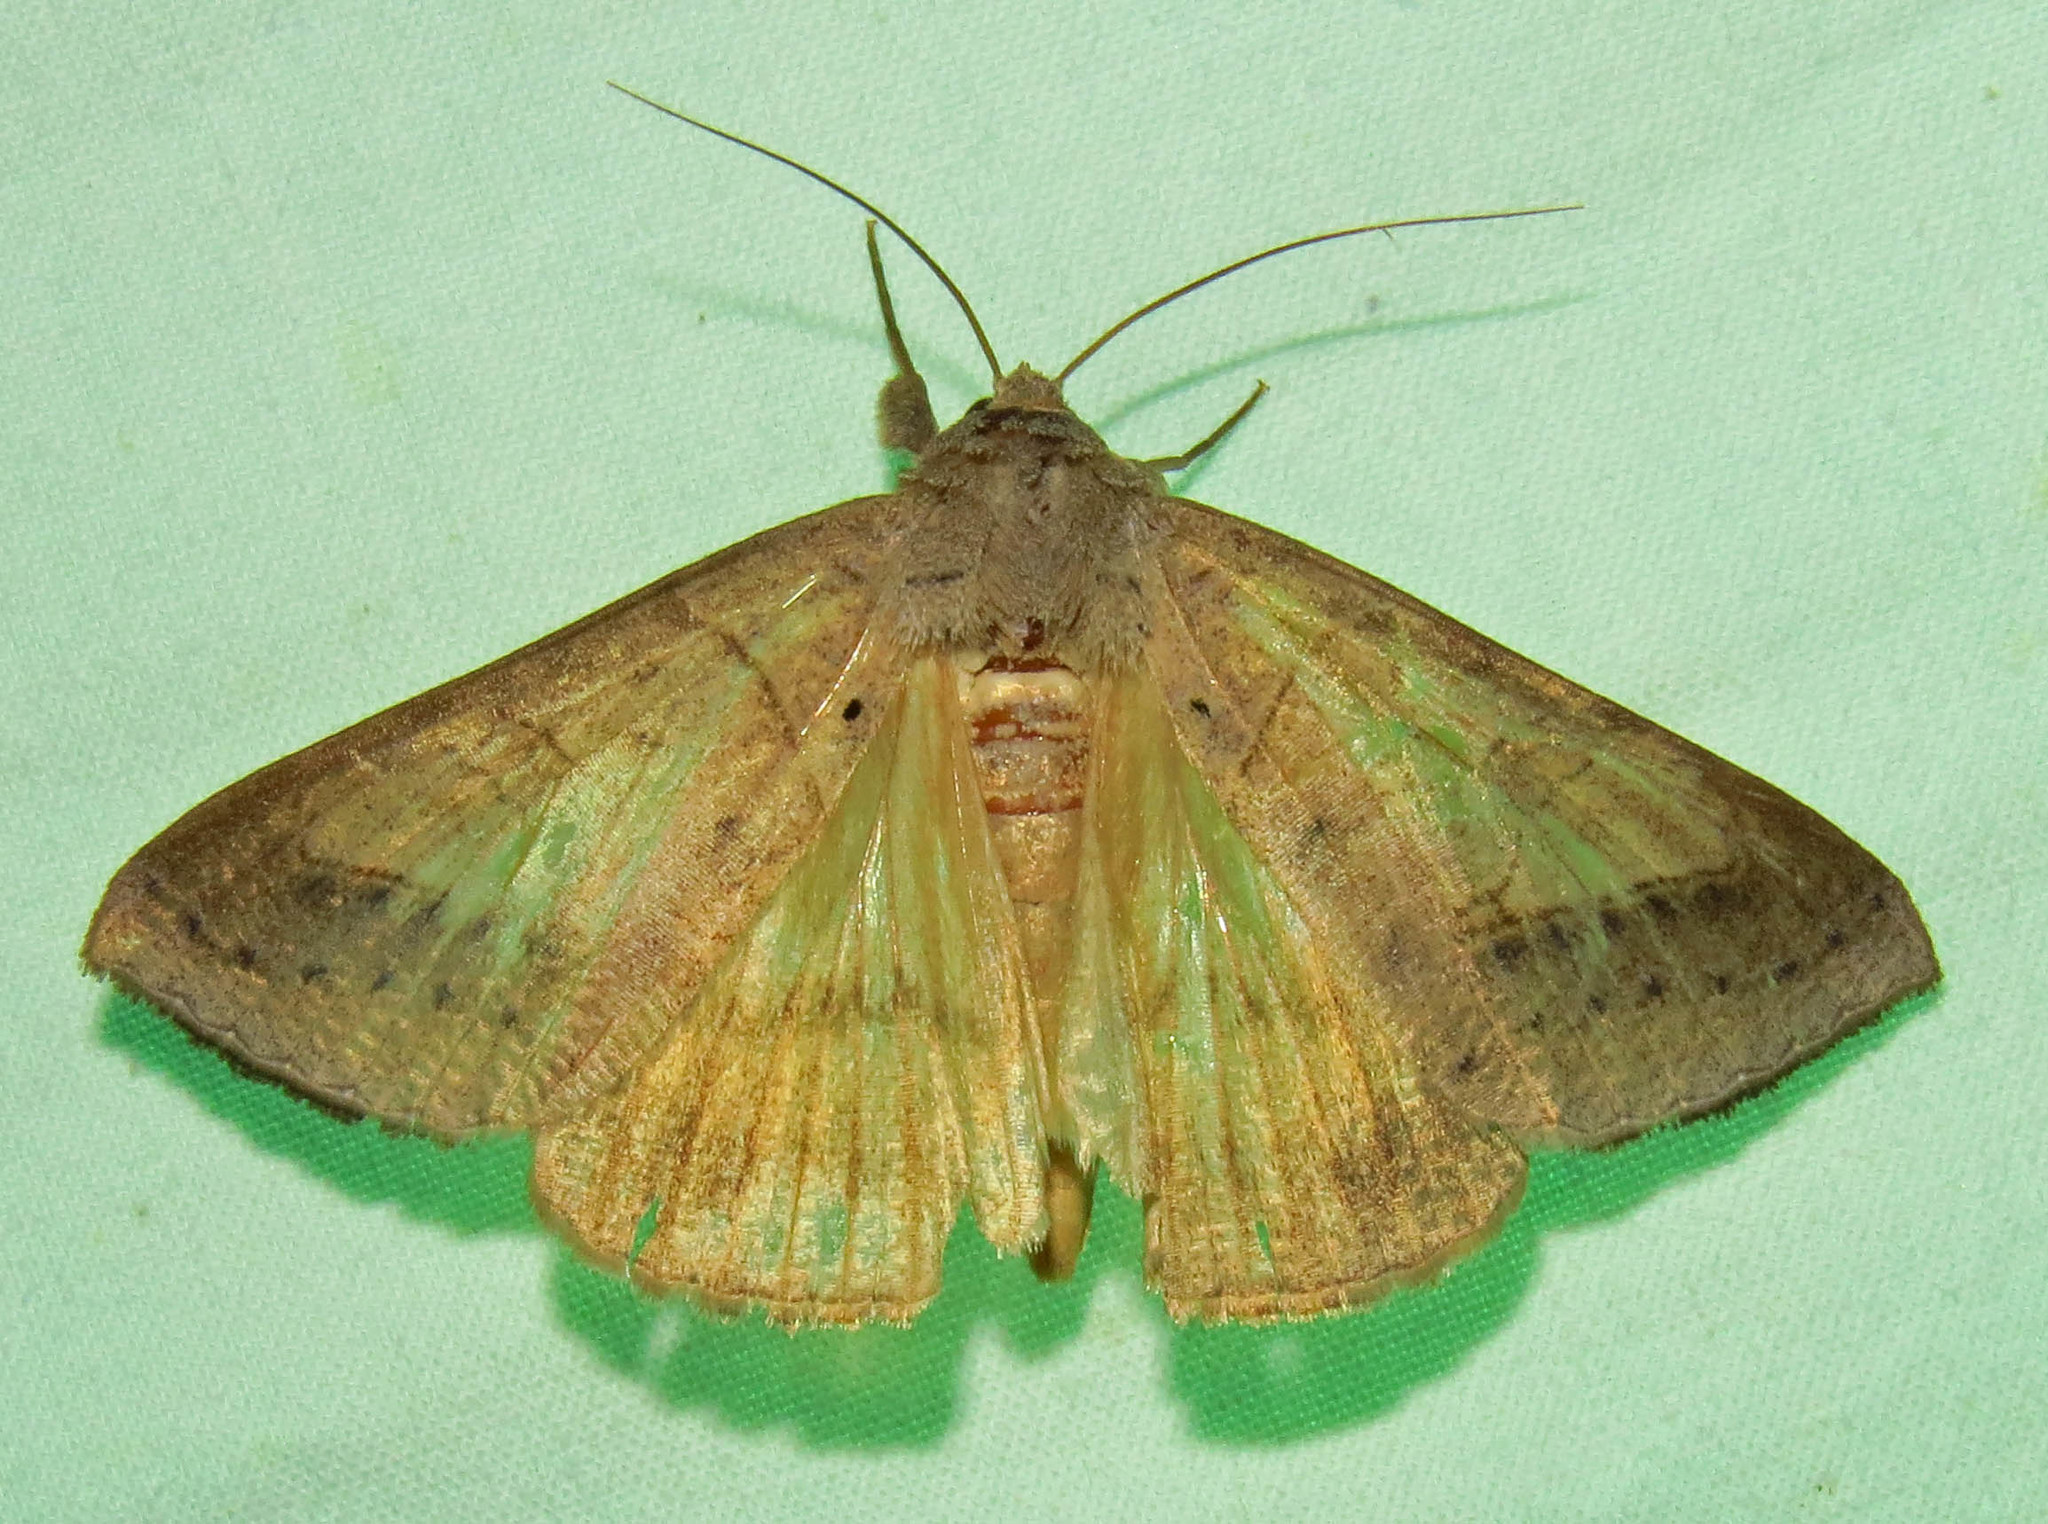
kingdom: Animalia
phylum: Arthropoda
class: Insecta
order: Lepidoptera
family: Erebidae
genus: Mocis
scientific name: Mocis marcida
